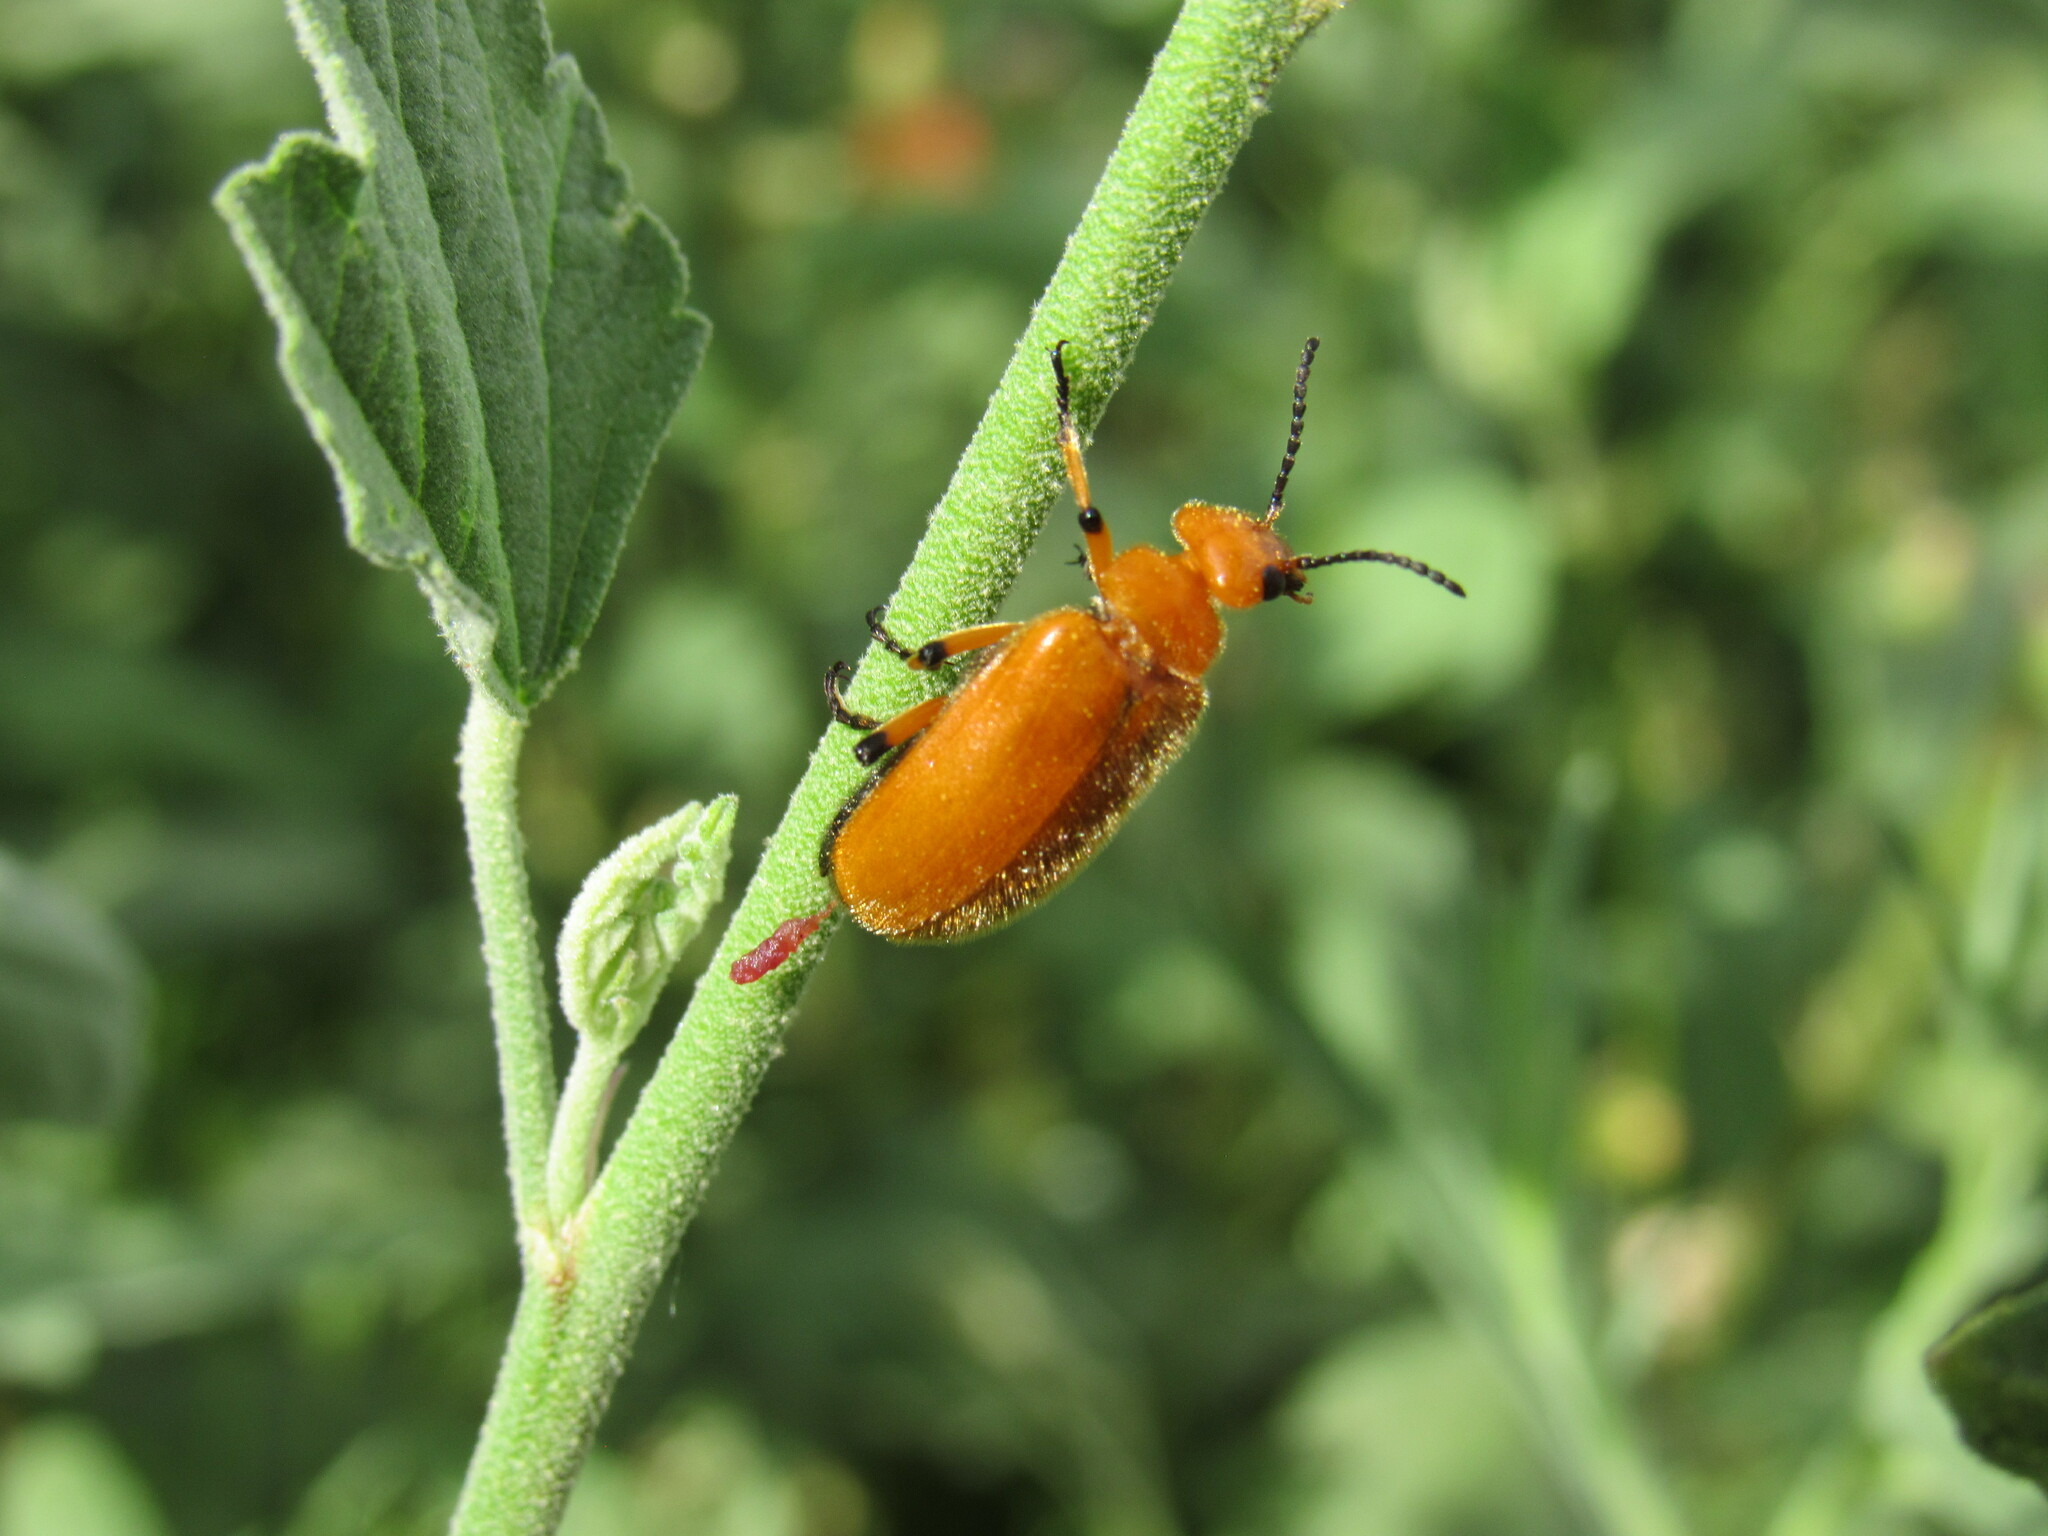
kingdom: Animalia
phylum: Arthropoda
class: Insecta
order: Coleoptera
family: Meloidae
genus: Tetraonyx
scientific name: Tetraonyx fulva
